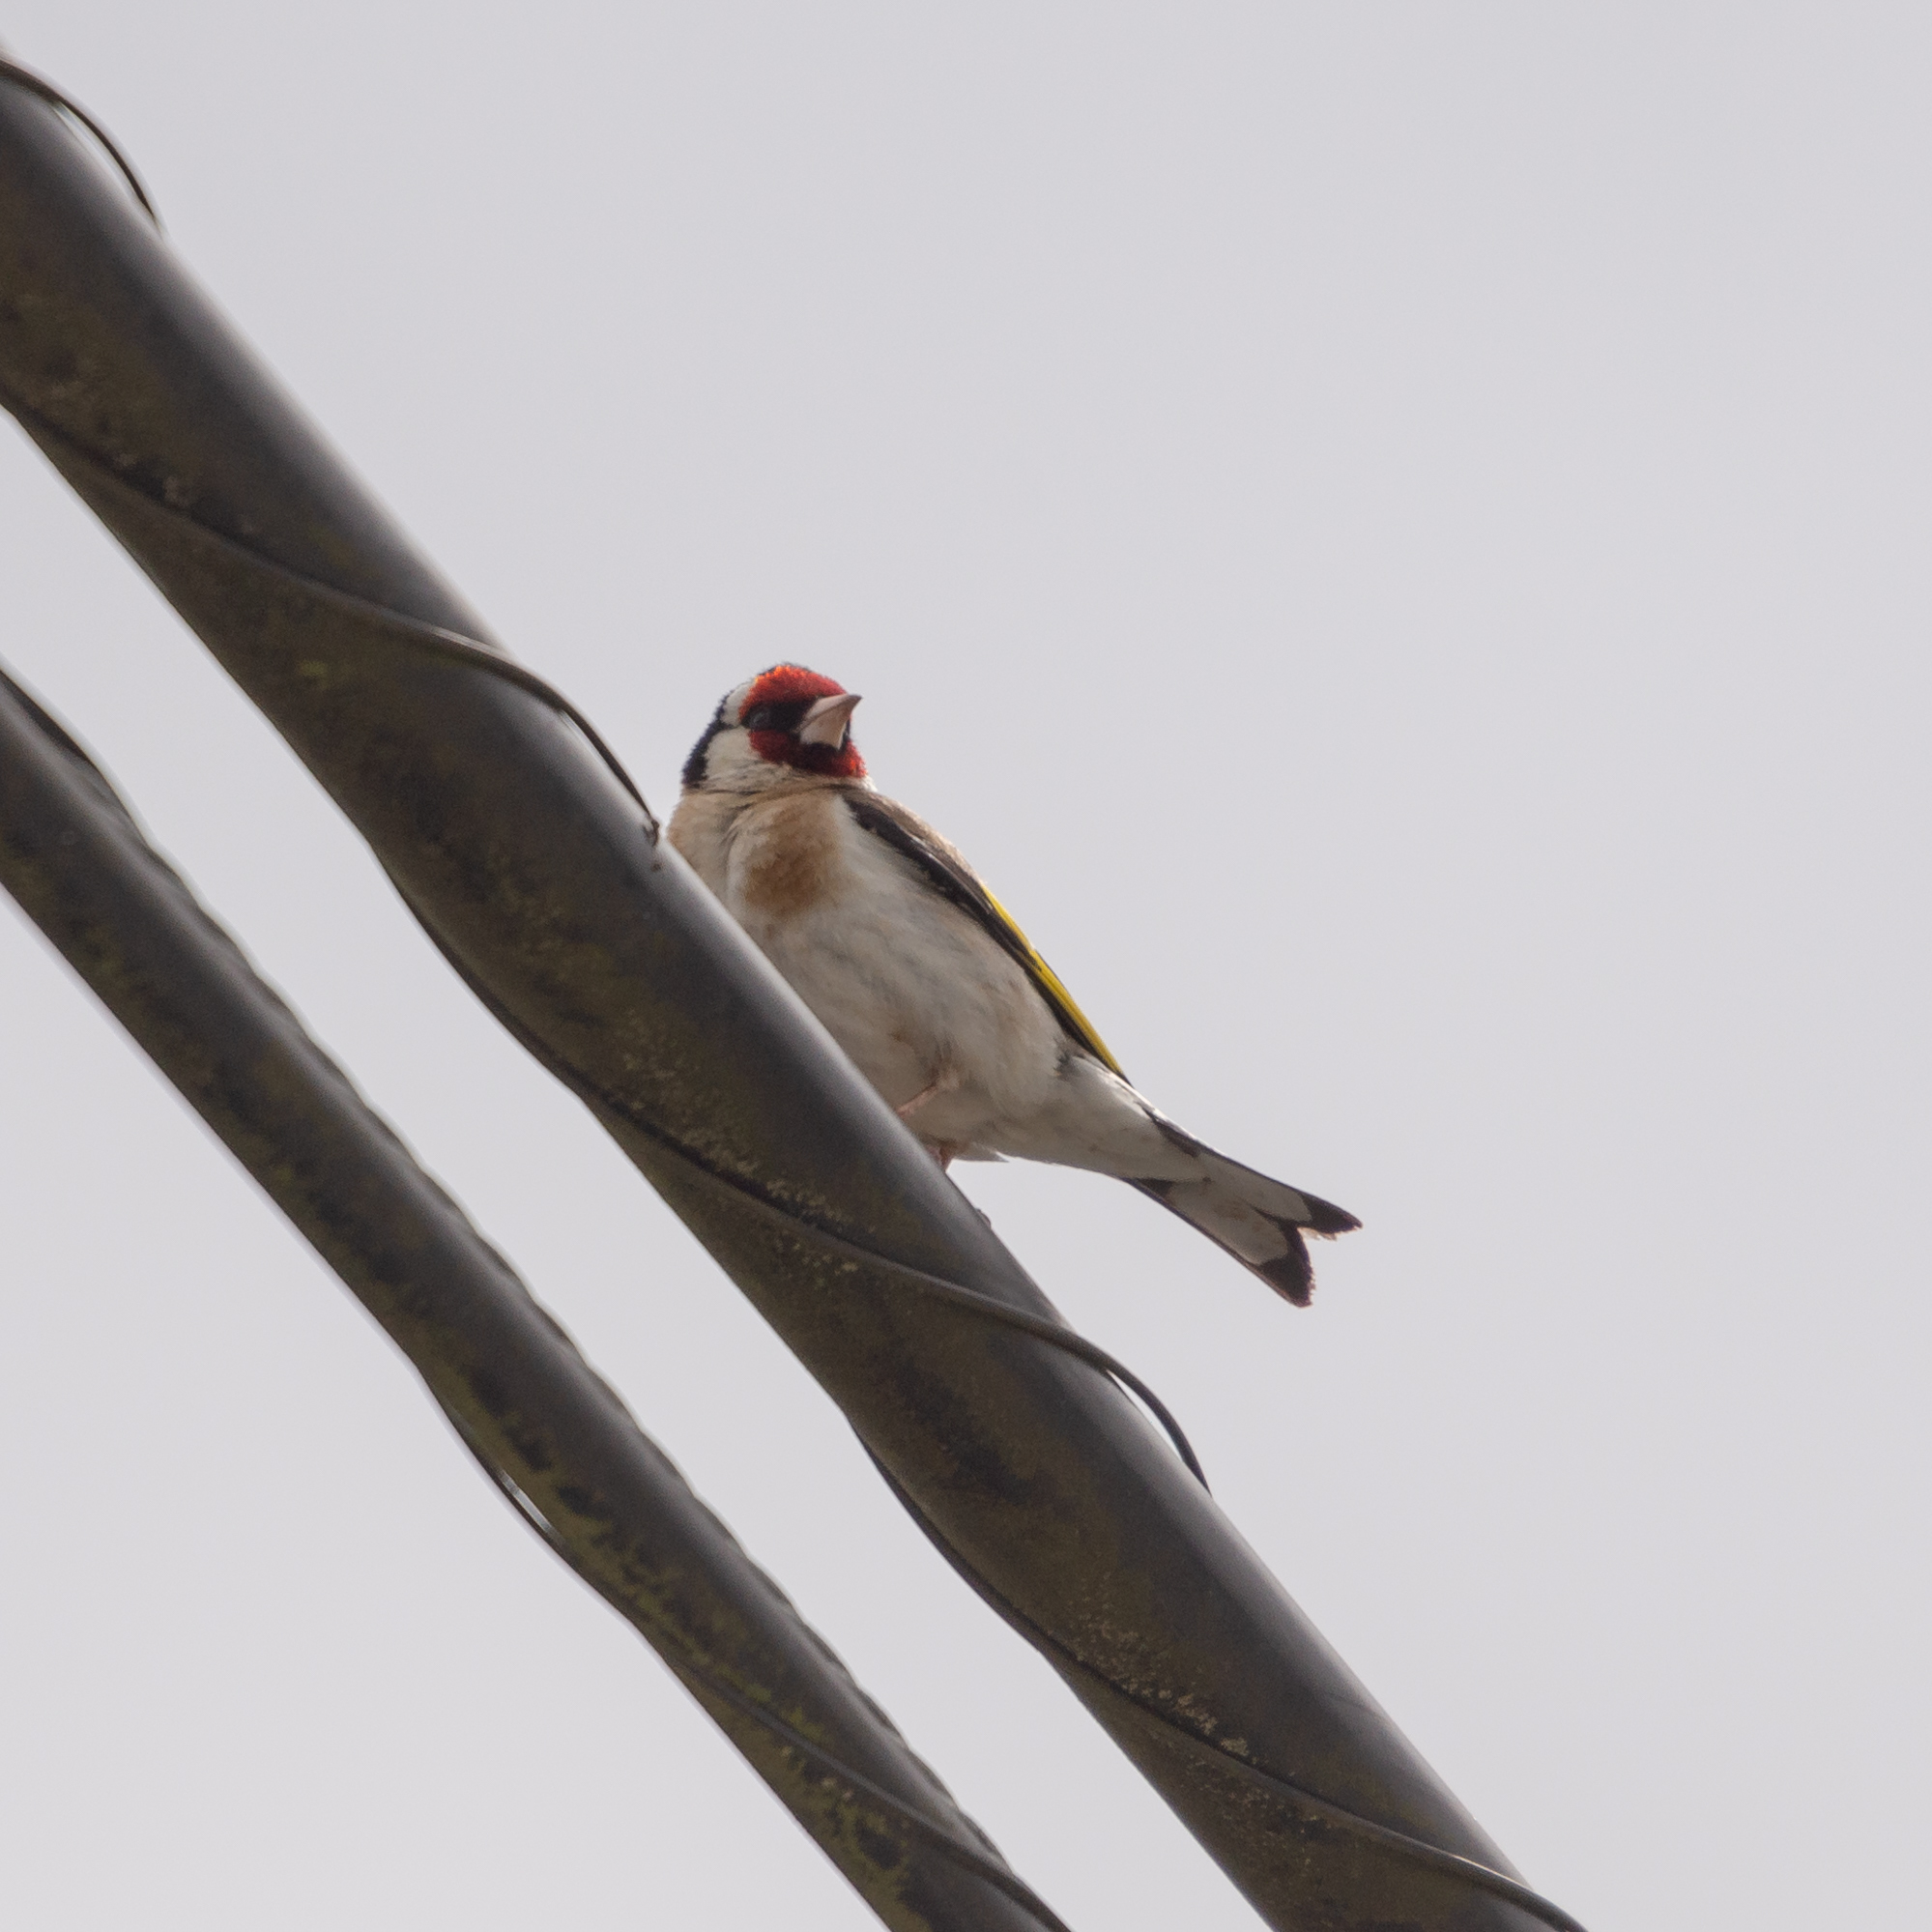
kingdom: Animalia
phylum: Chordata
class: Aves
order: Passeriformes
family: Fringillidae
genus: Carduelis
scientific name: Carduelis carduelis
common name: European goldfinch
